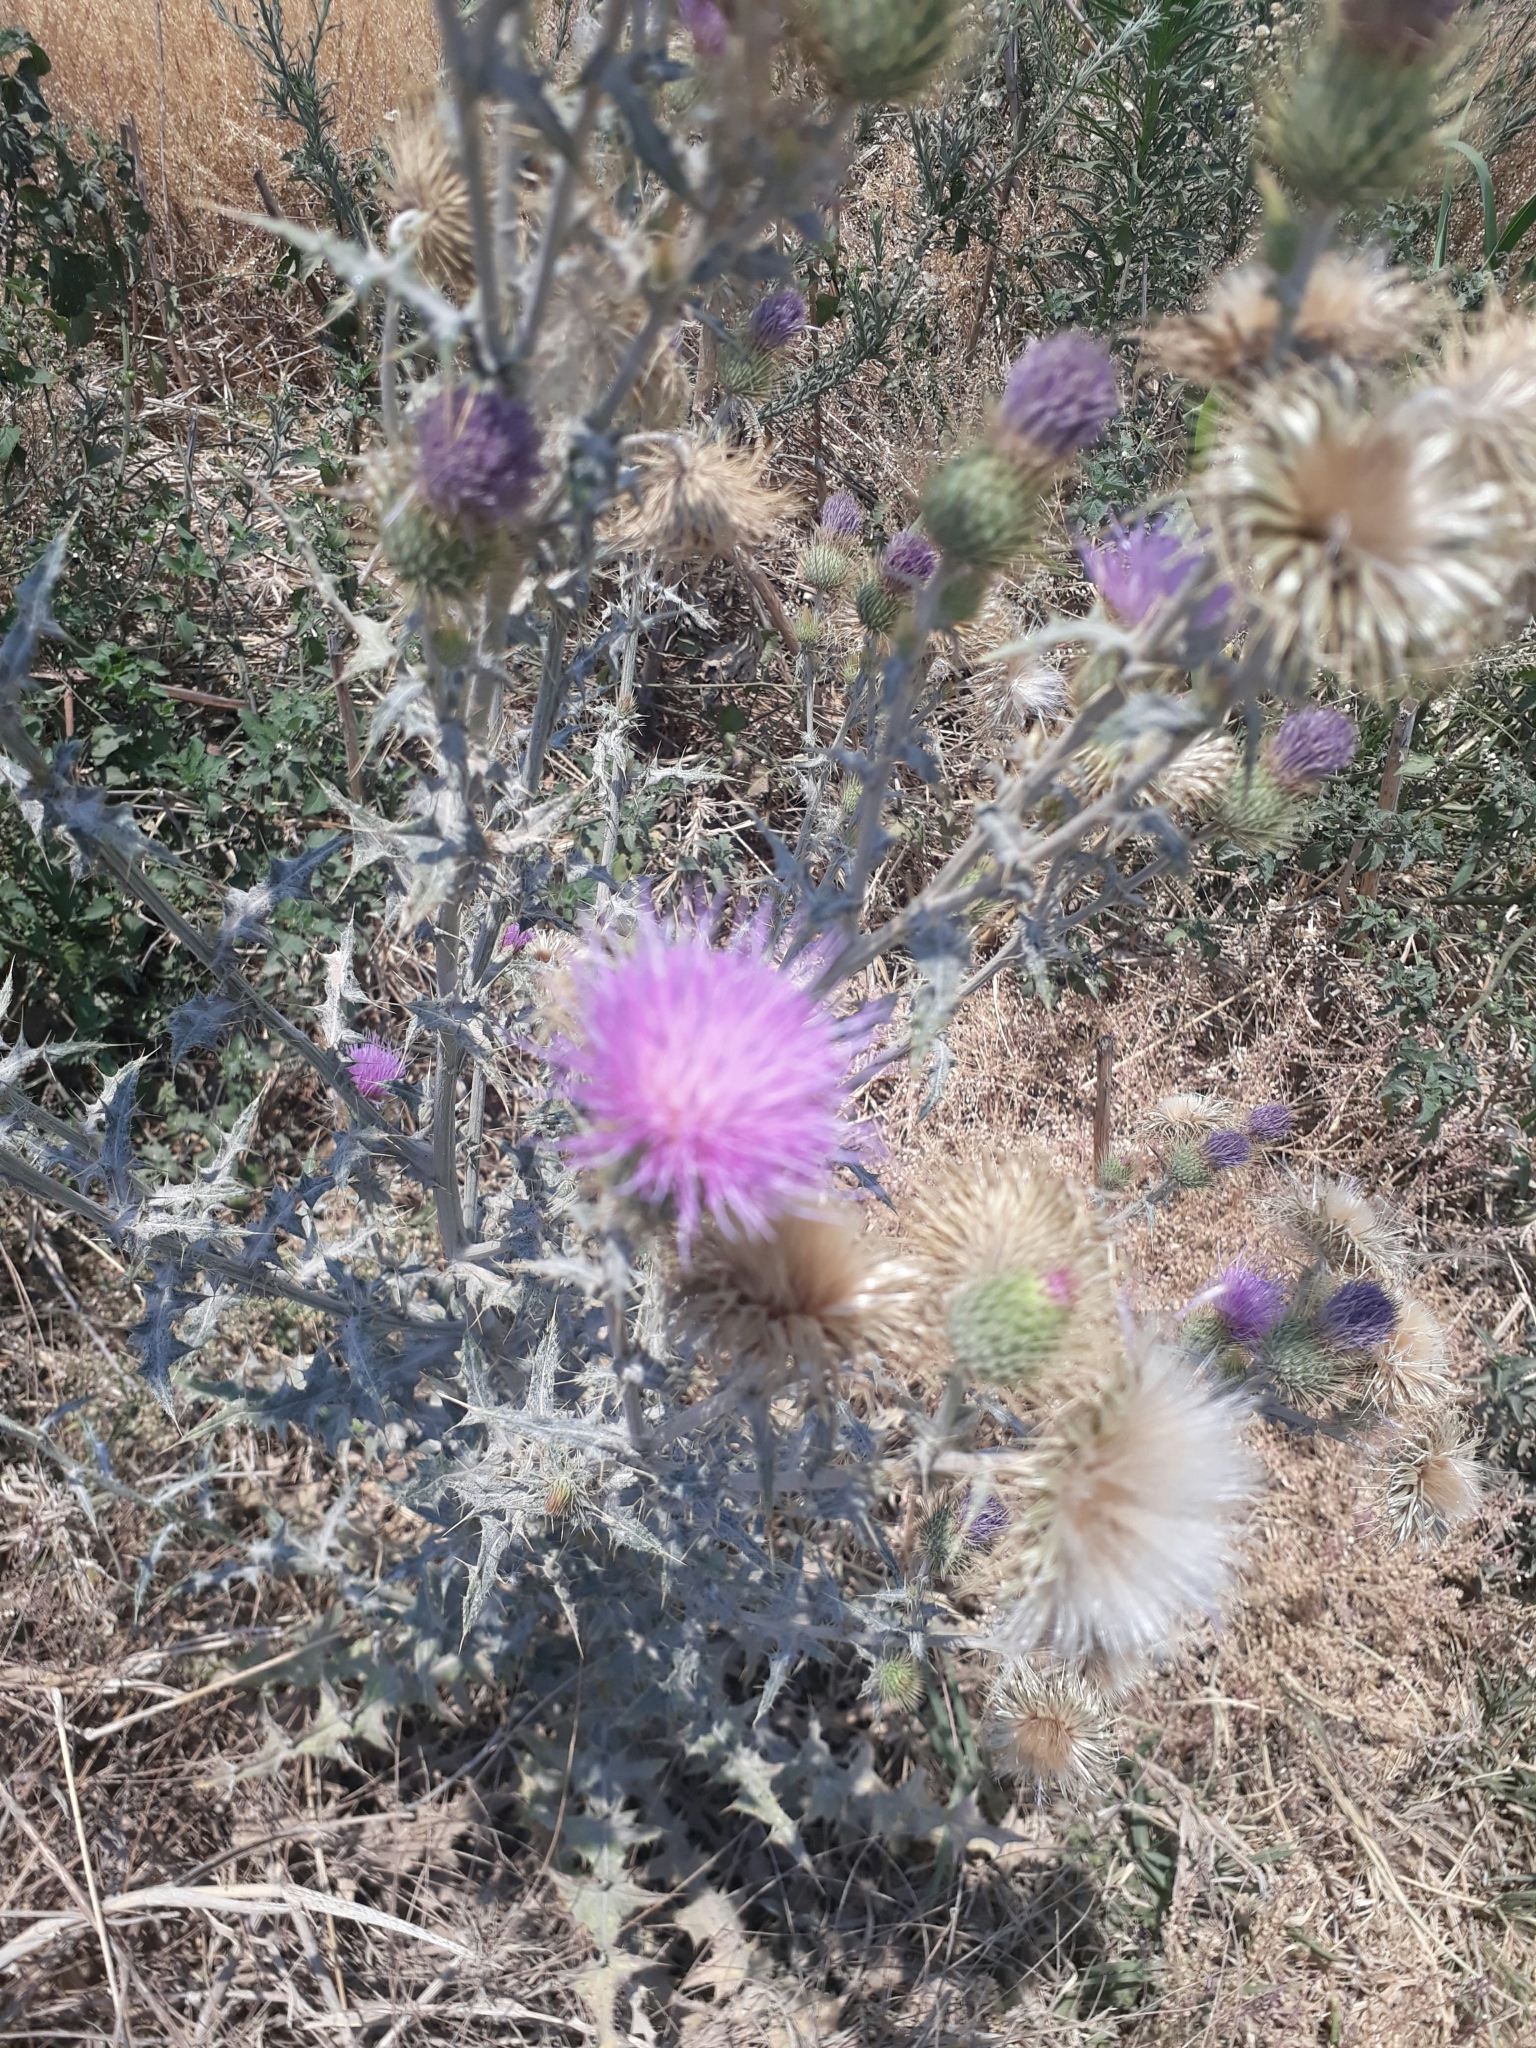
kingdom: Plantae
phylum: Tracheophyta
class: Magnoliopsida
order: Asterales
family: Asteraceae
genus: Cirsium
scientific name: Cirsium rhaphilepis
